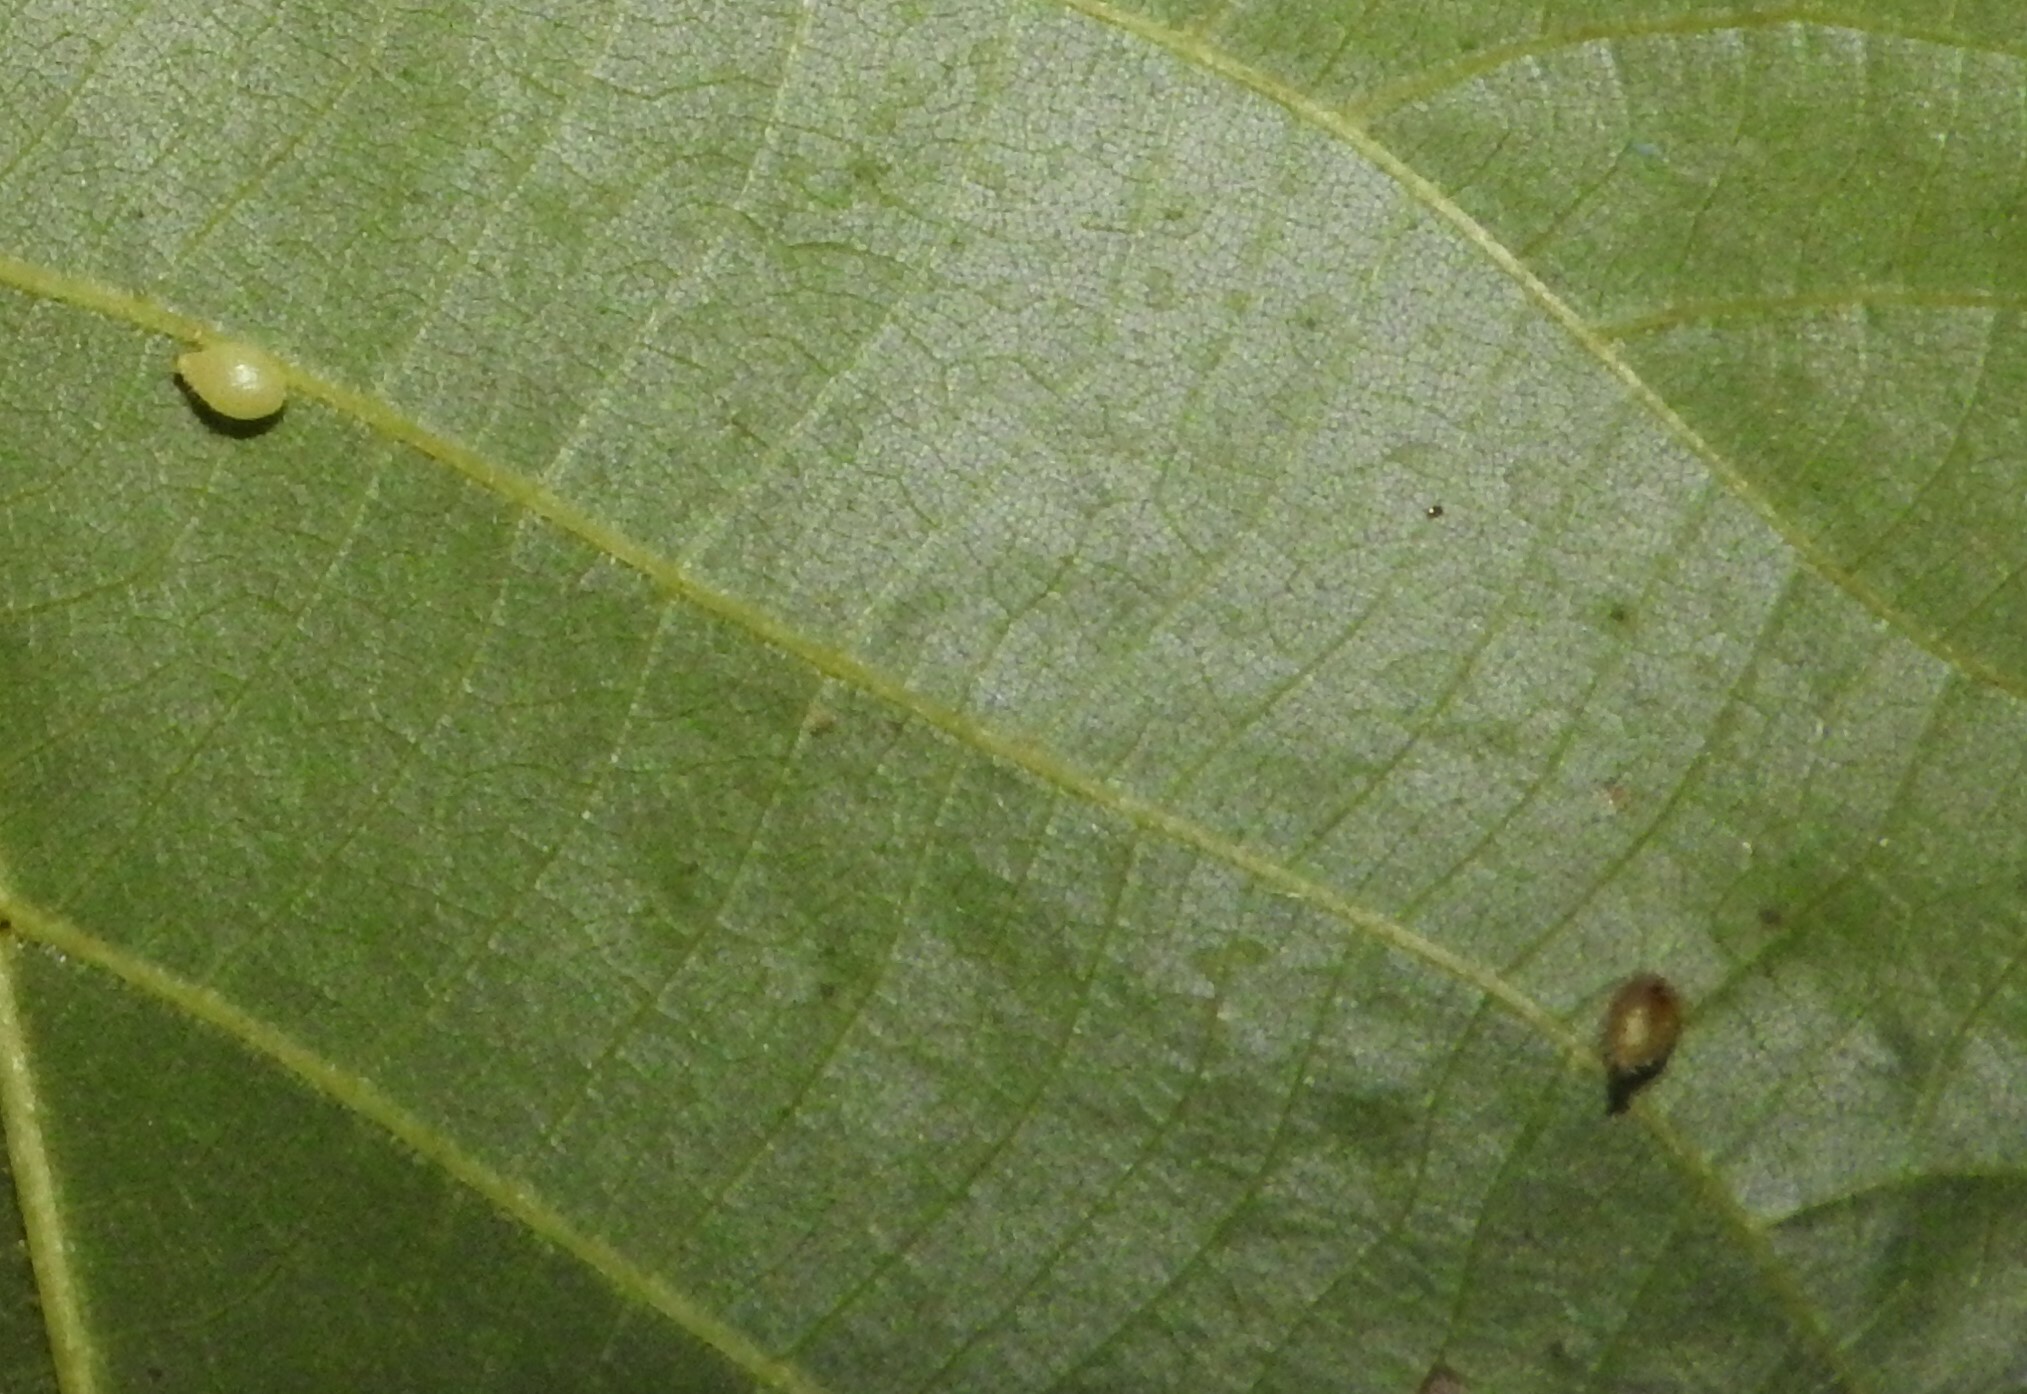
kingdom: Animalia
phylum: Arthropoda
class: Insecta
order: Diptera
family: Cecidomyiidae
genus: Caryomyia
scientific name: Caryomyia eumaris
